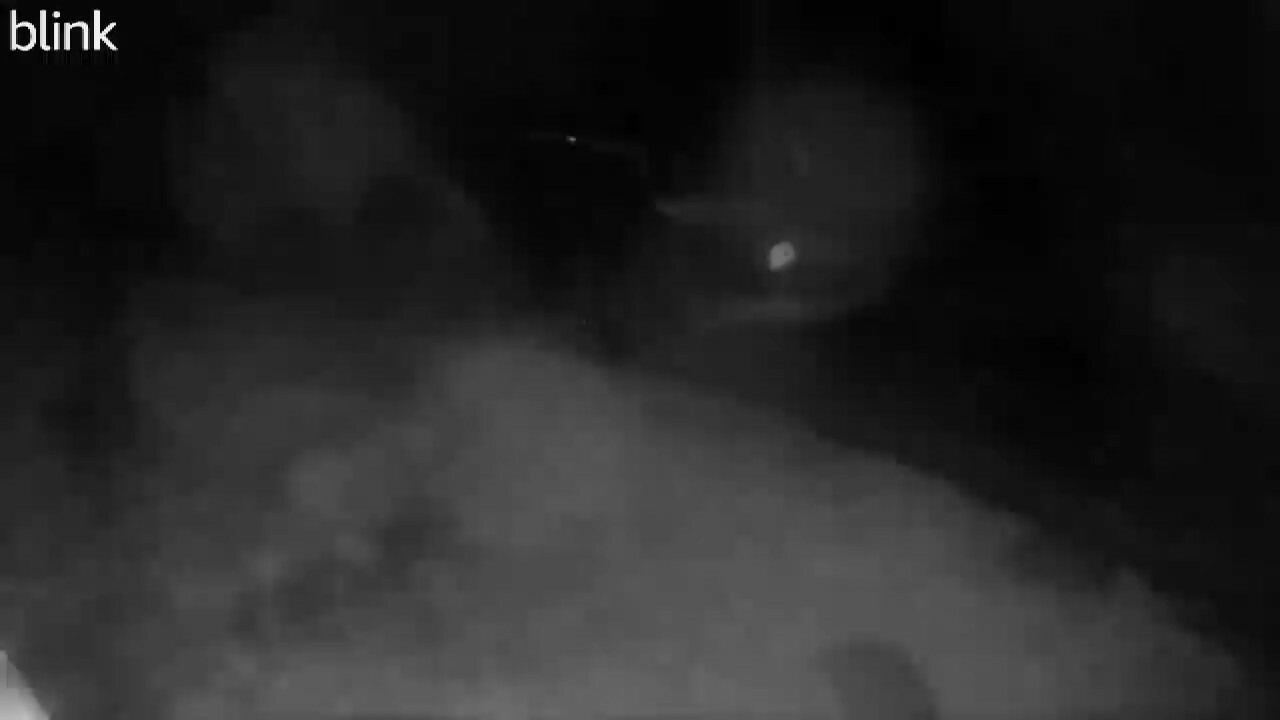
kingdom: Animalia
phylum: Chordata
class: Mammalia
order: Carnivora
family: Procyonidae
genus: Procyon
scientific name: Procyon lotor
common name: Raccoon
